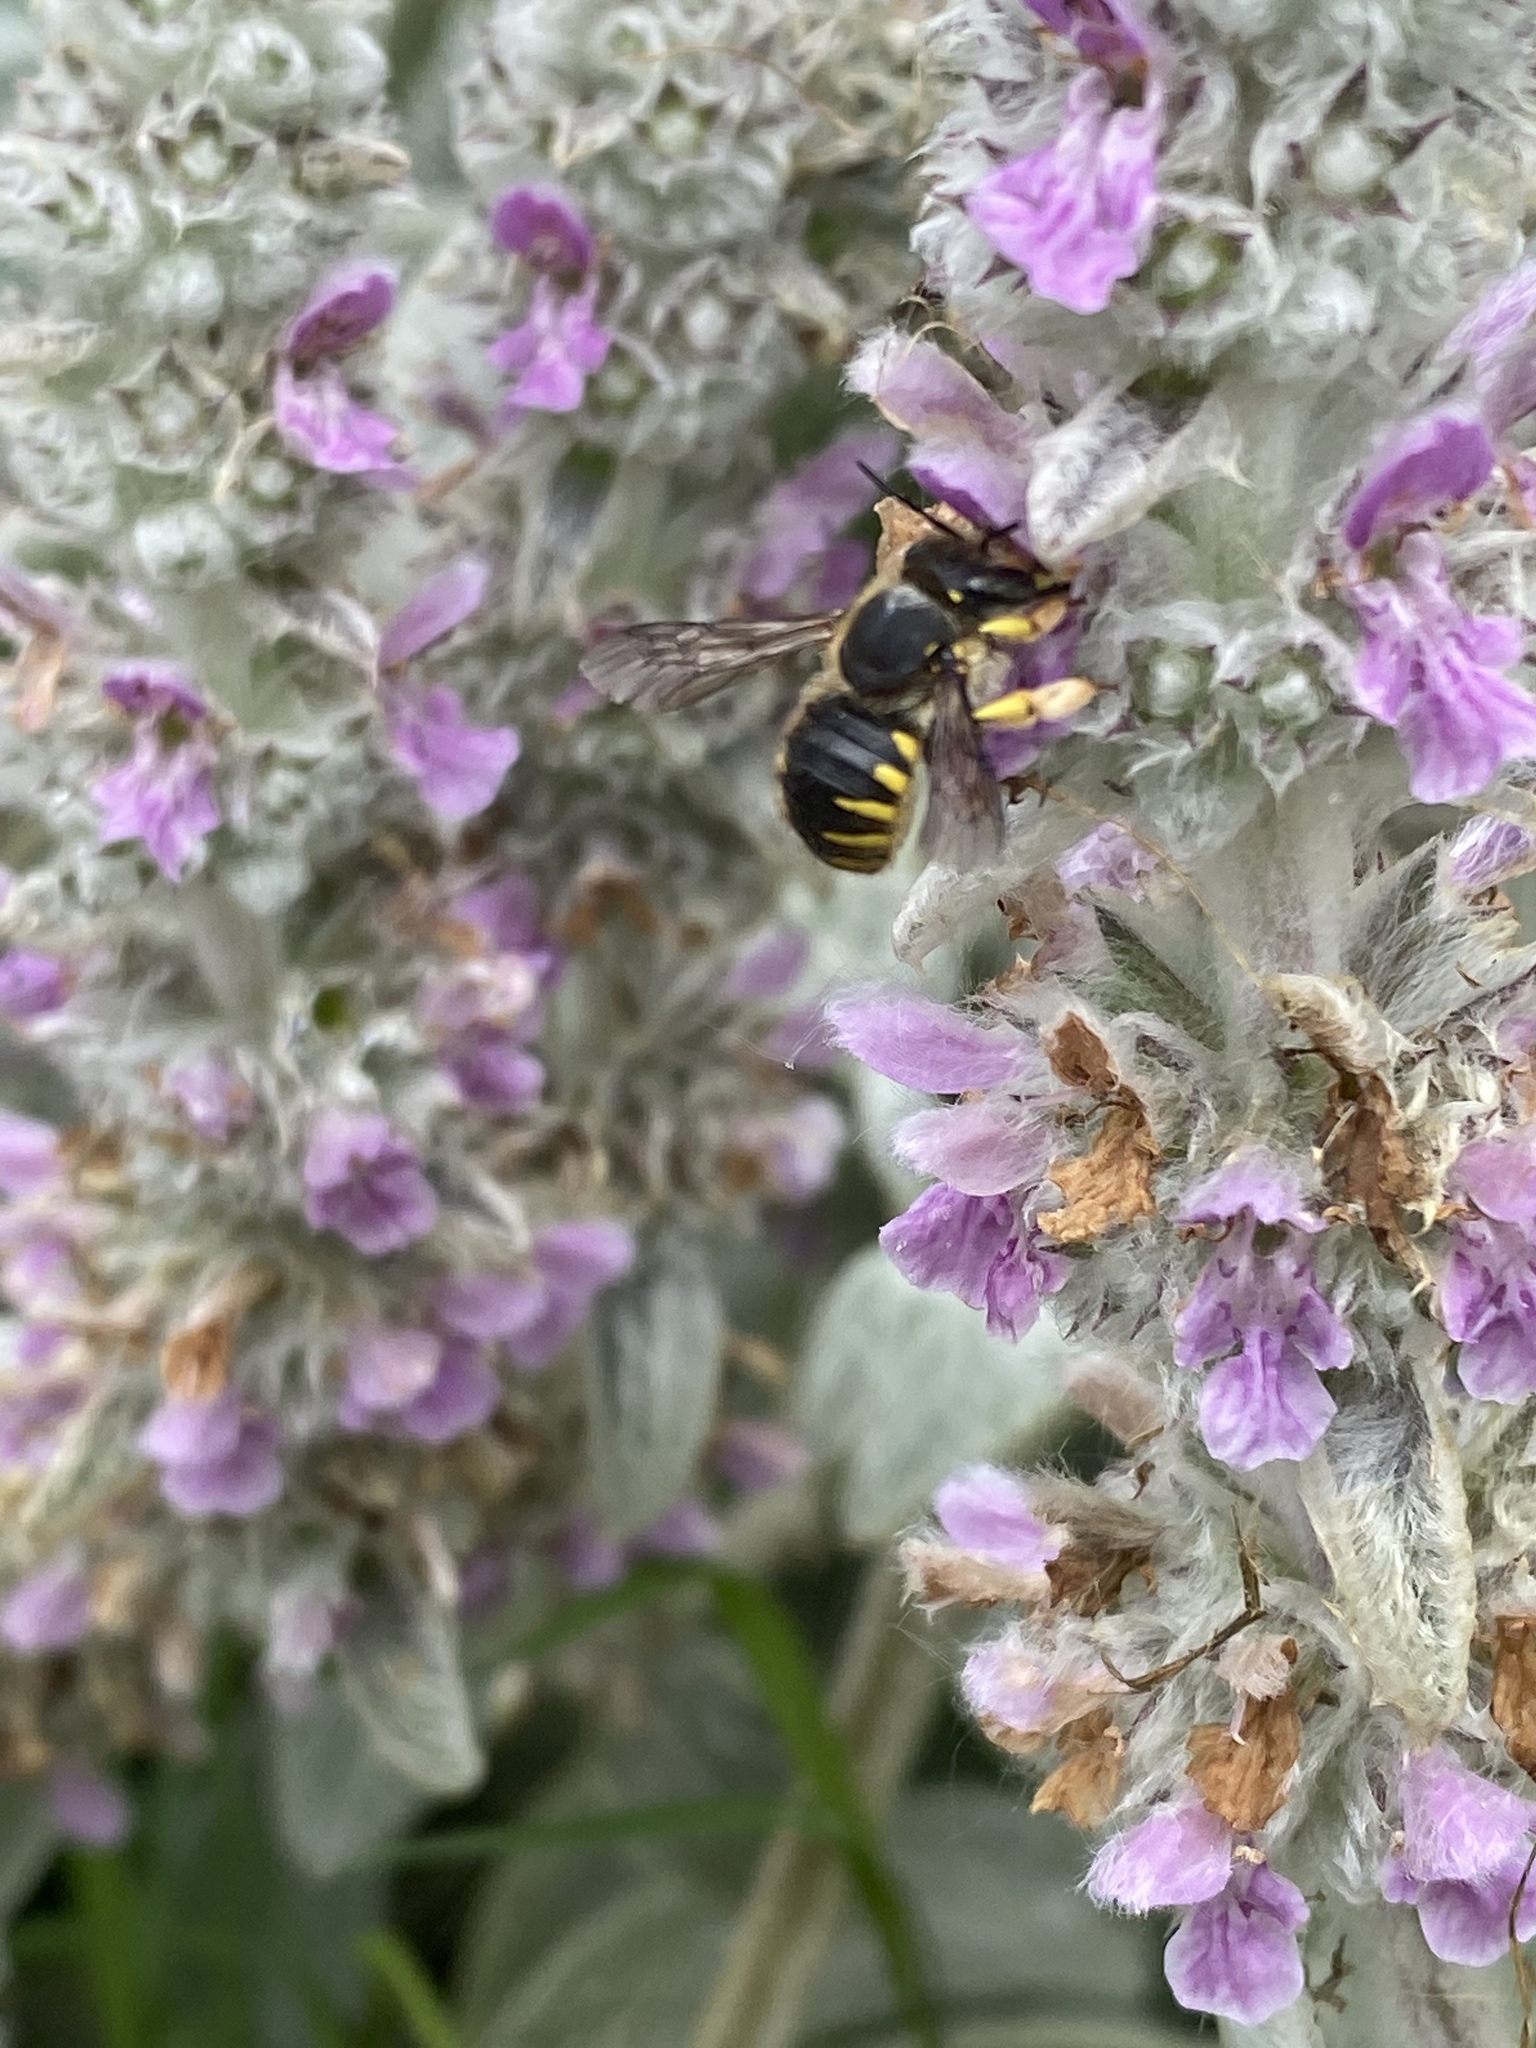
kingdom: Animalia
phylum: Arthropoda
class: Insecta
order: Hymenoptera
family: Megachilidae
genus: Anthidium
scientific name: Anthidium manicatum
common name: Wool carder bee
